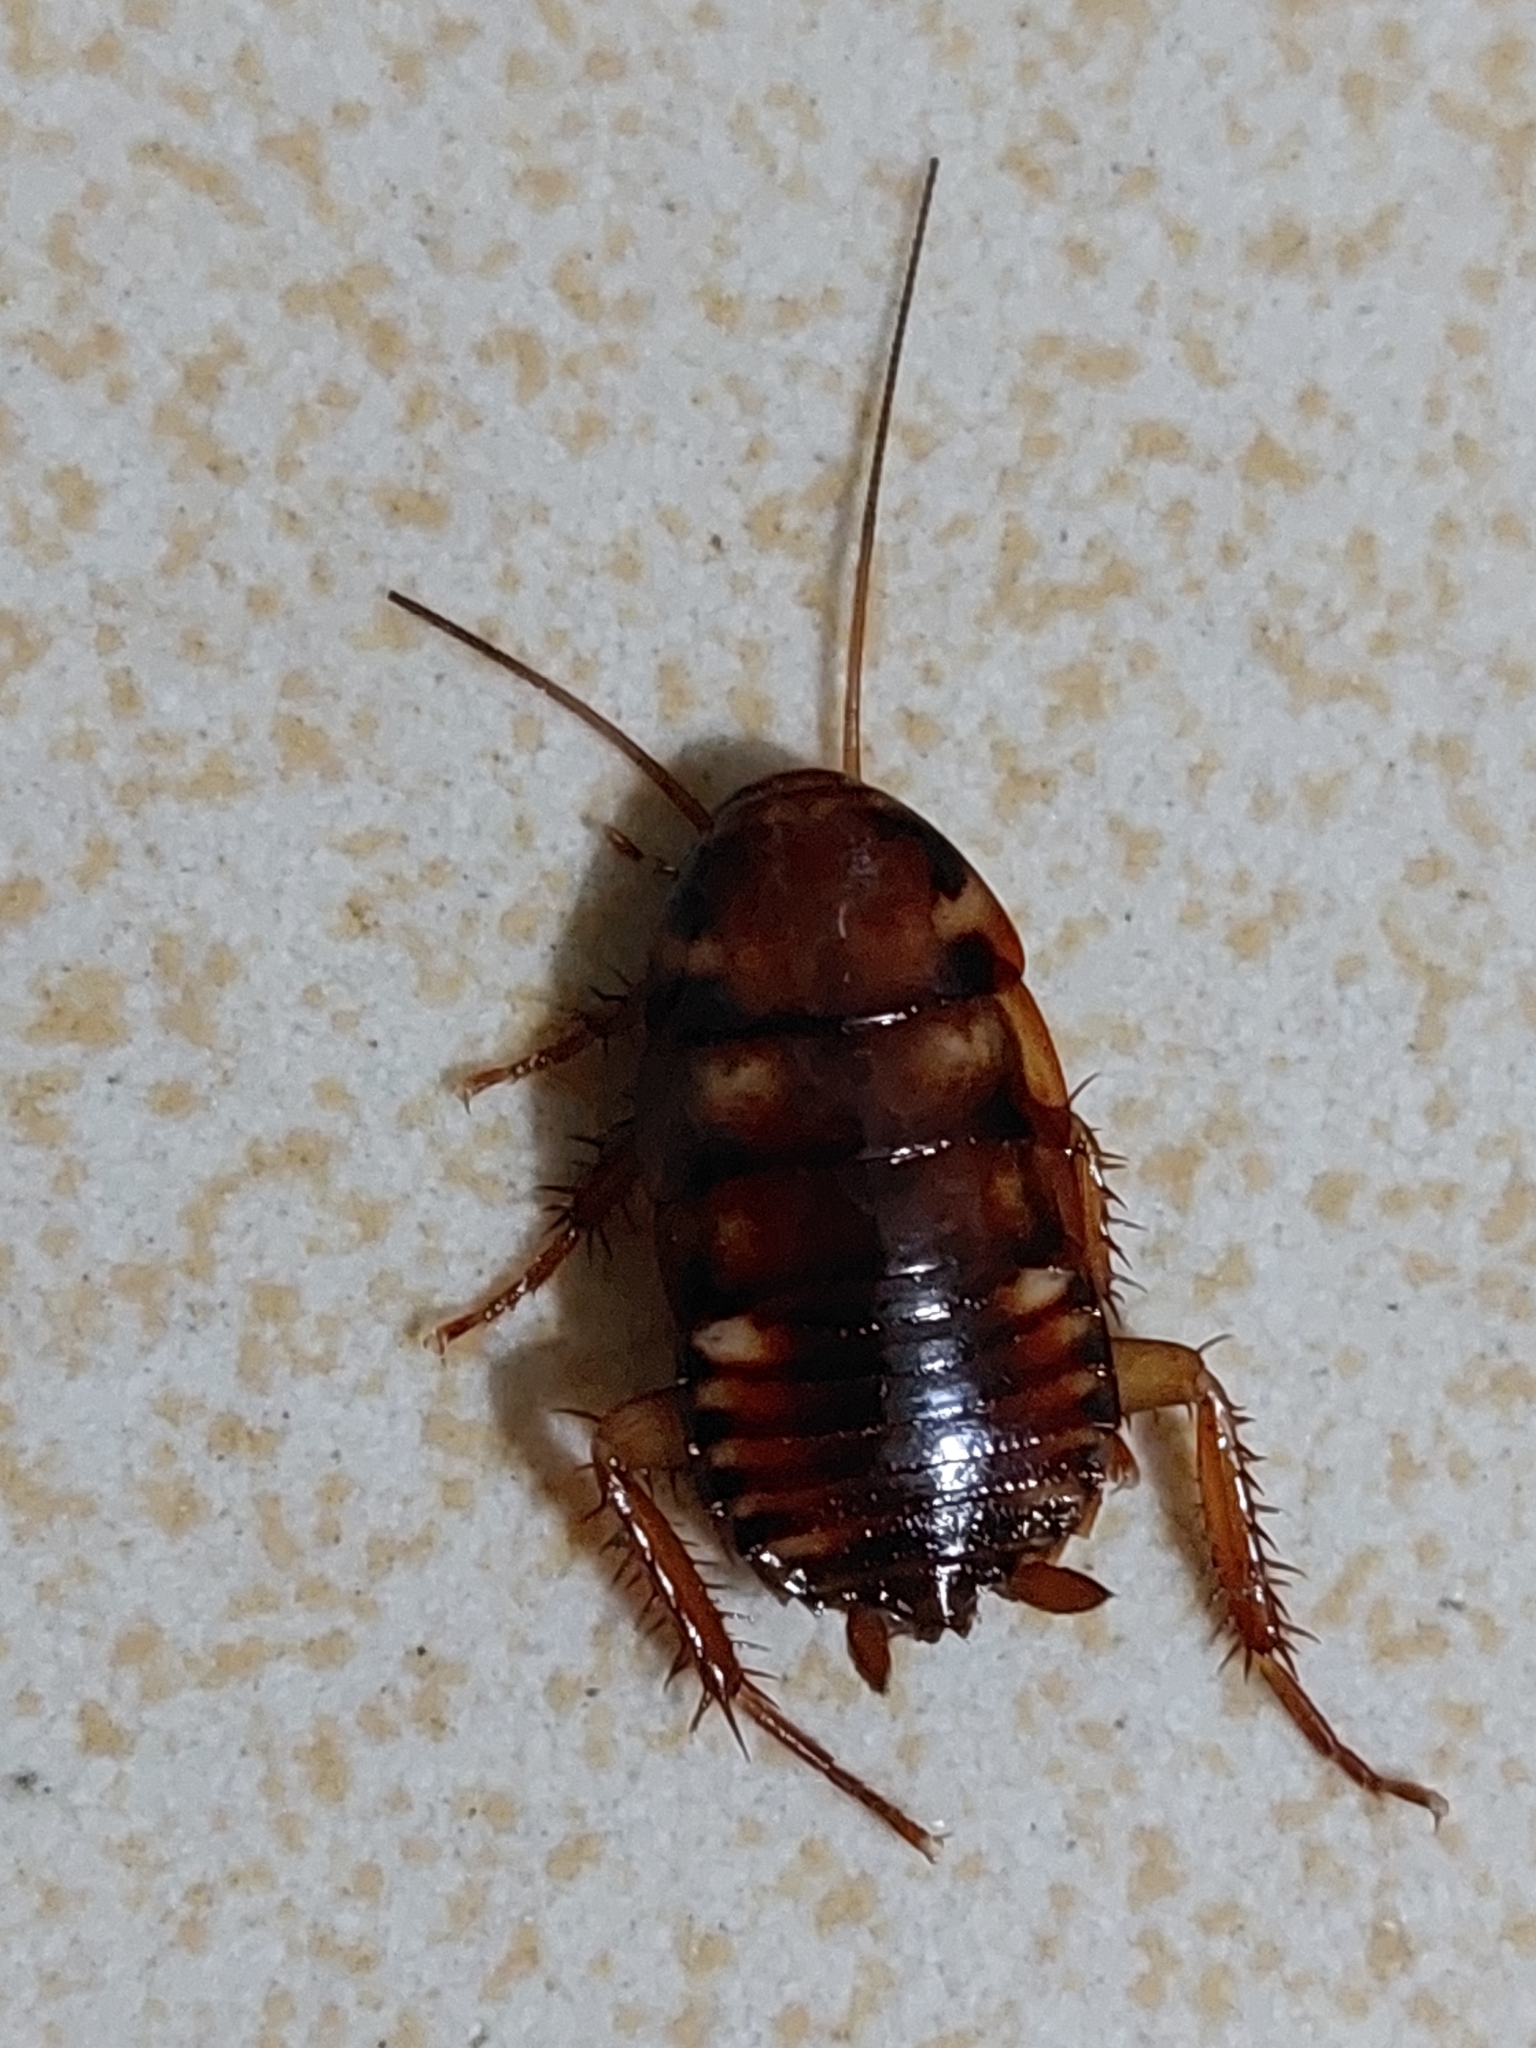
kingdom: Animalia
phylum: Arthropoda
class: Insecta
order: Blattodea
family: Blattidae
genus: Periplaneta
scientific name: Periplaneta australasiae
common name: Australian cockroach
